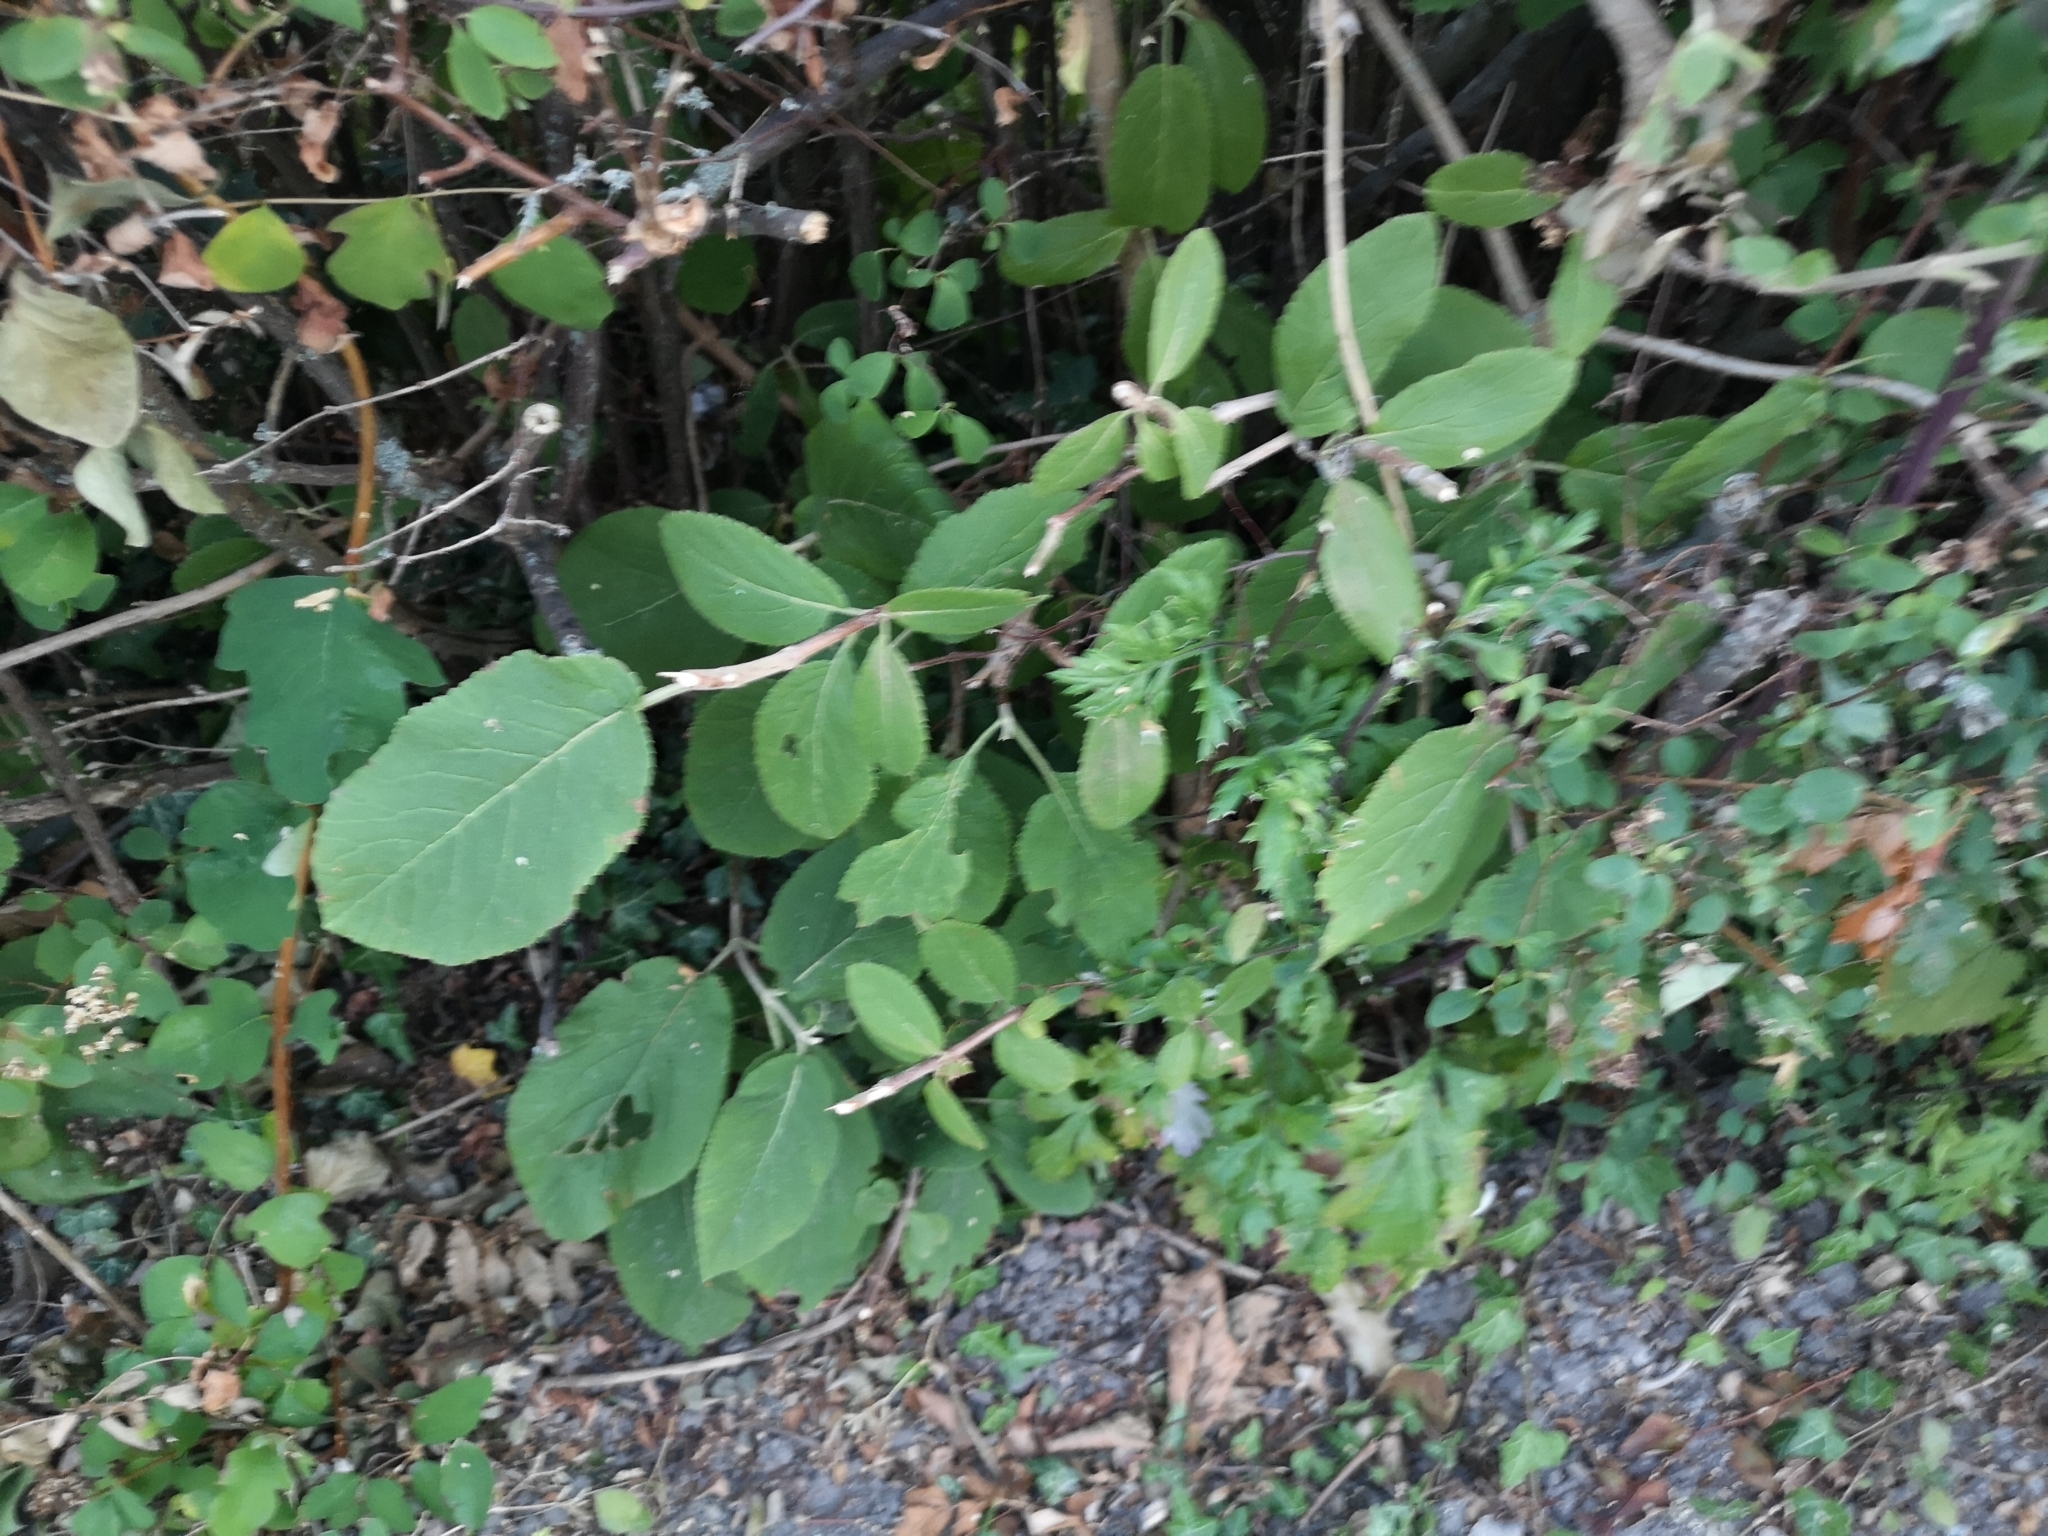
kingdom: Plantae
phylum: Tracheophyta
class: Magnoliopsida
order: Dipsacales
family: Viburnaceae
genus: Viburnum
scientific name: Viburnum lantana
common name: Wayfaring tree
